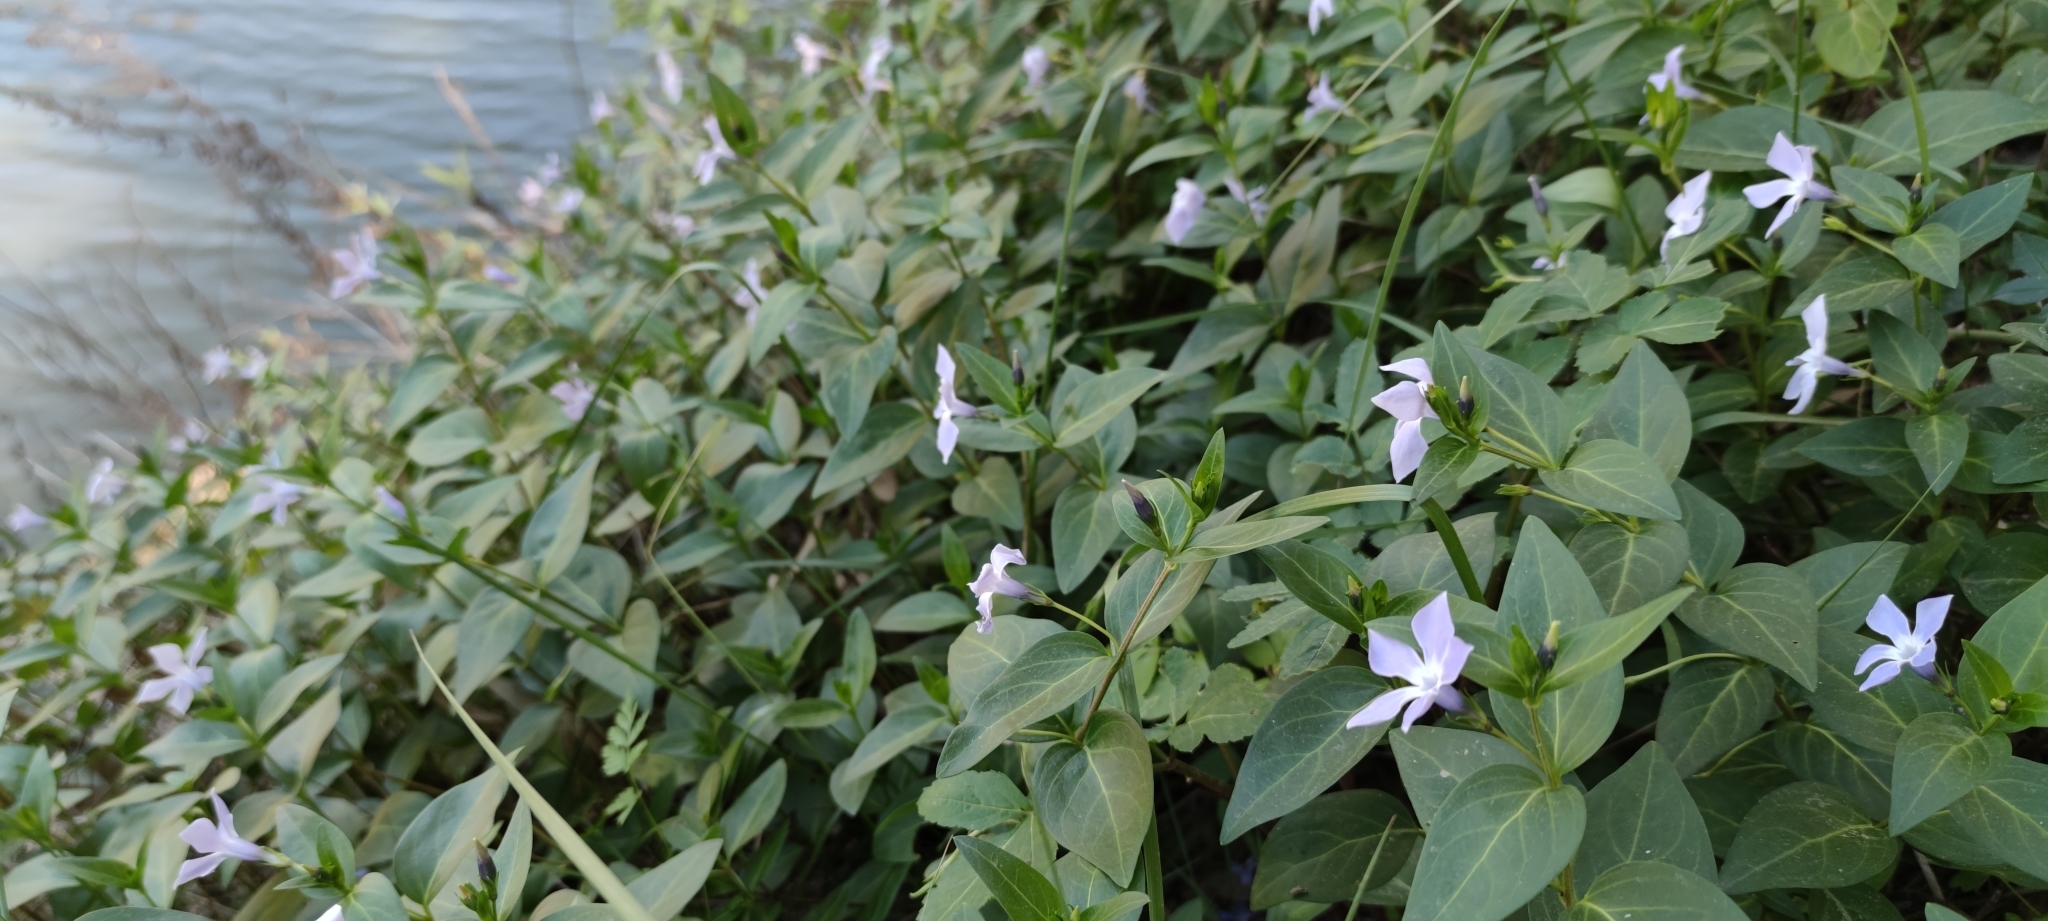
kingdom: Plantae
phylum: Tracheophyta
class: Magnoliopsida
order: Gentianales
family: Apocynaceae
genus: Vinca
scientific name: Vinca difformis
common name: Intermediate periwinkle
